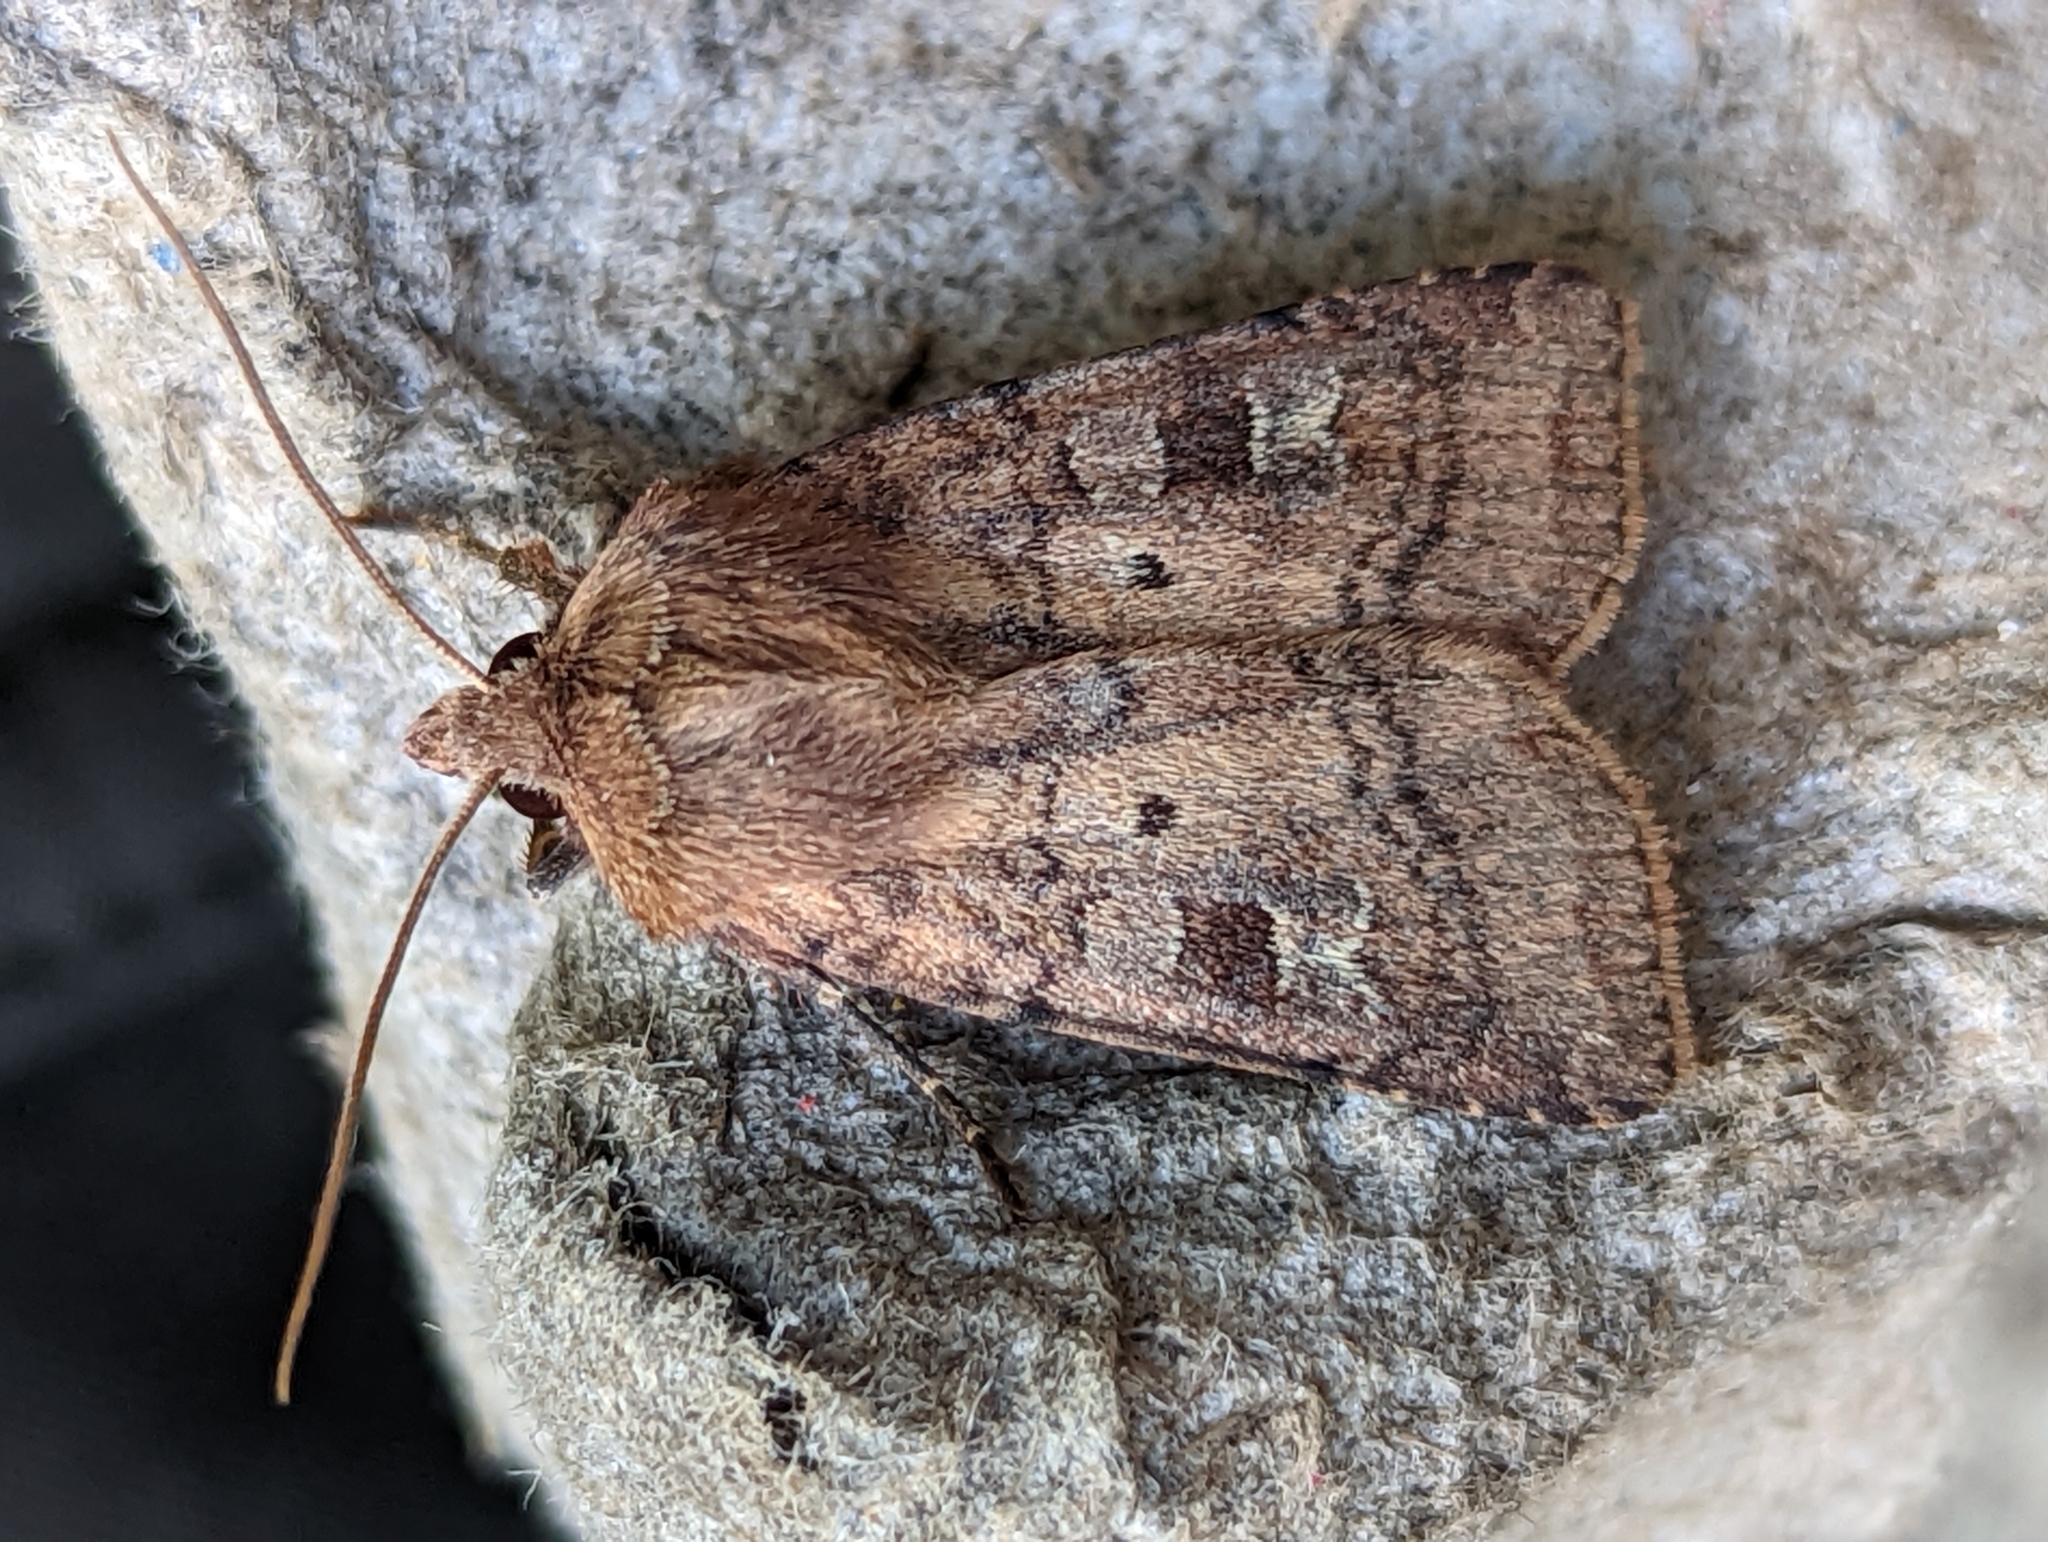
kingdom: Animalia
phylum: Arthropoda
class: Insecta
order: Lepidoptera
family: Noctuidae
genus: Diarsia
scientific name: Diarsia rubi
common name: Small square-spot
